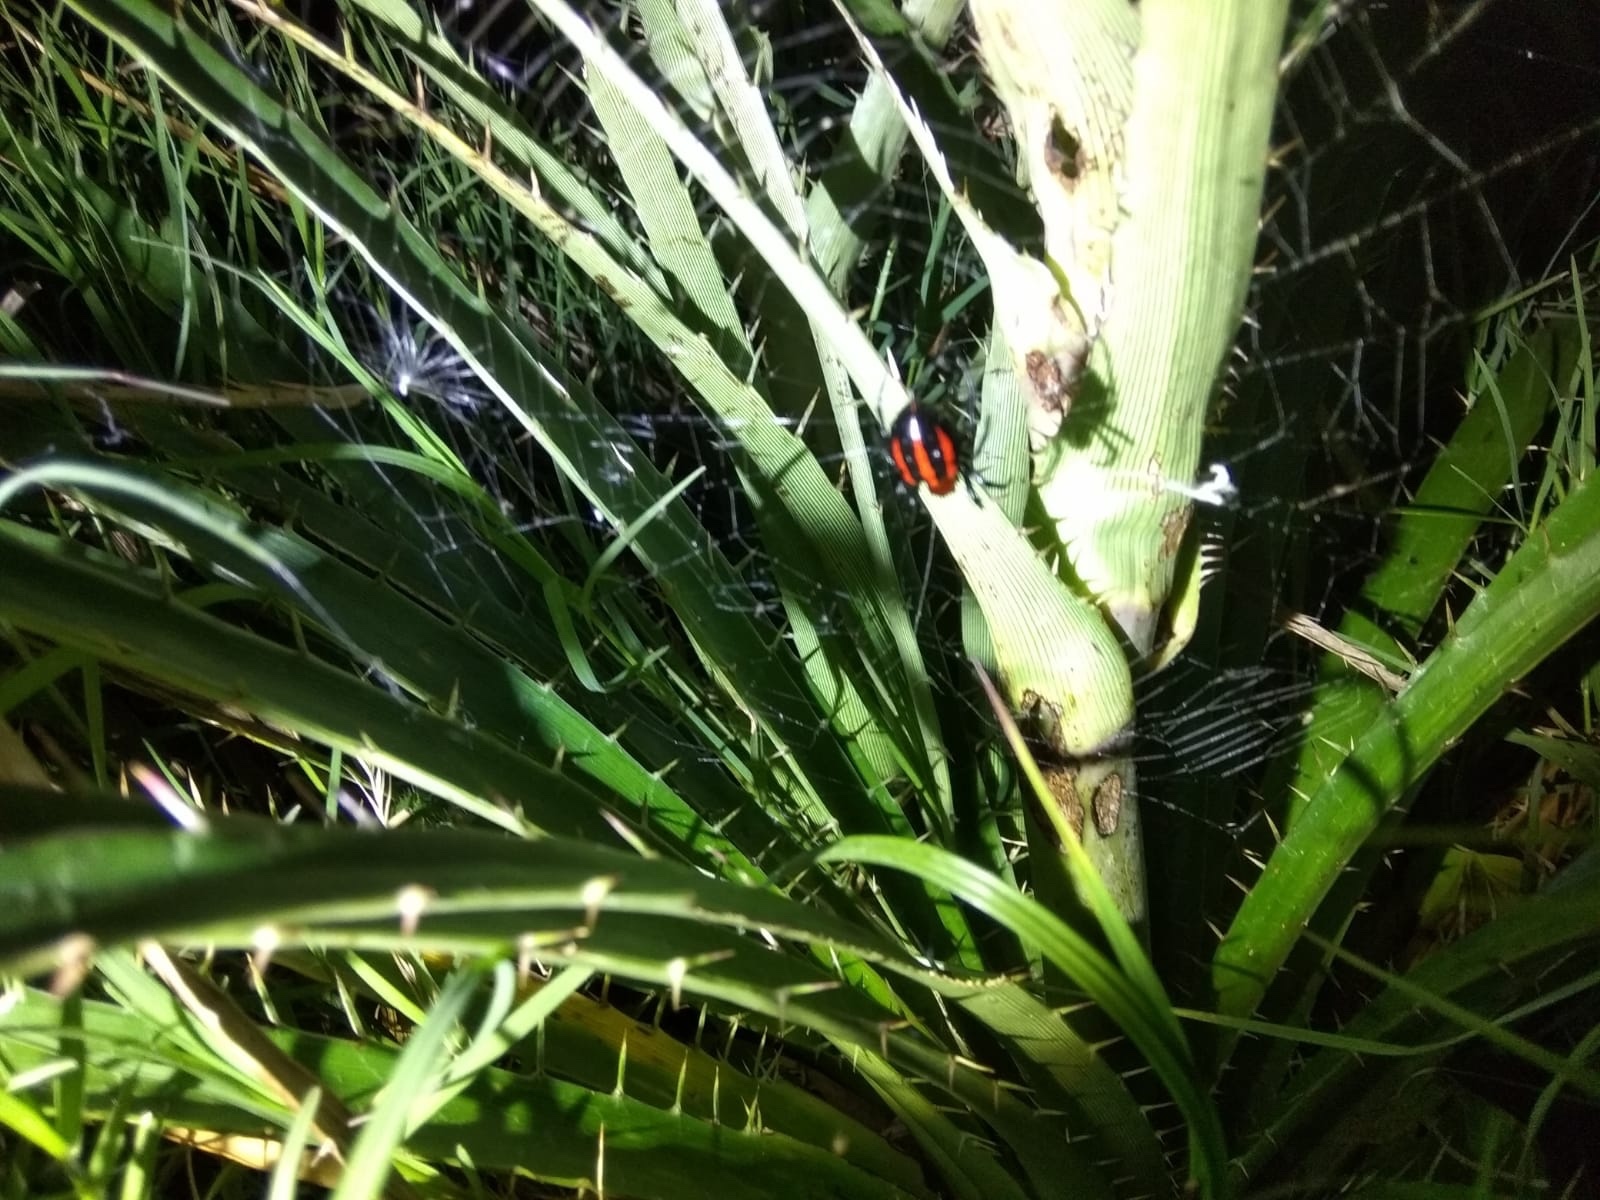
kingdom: Animalia
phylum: Arthropoda
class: Arachnida
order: Araneae
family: Araneidae
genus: Alpaida
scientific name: Alpaida quadrilorata
